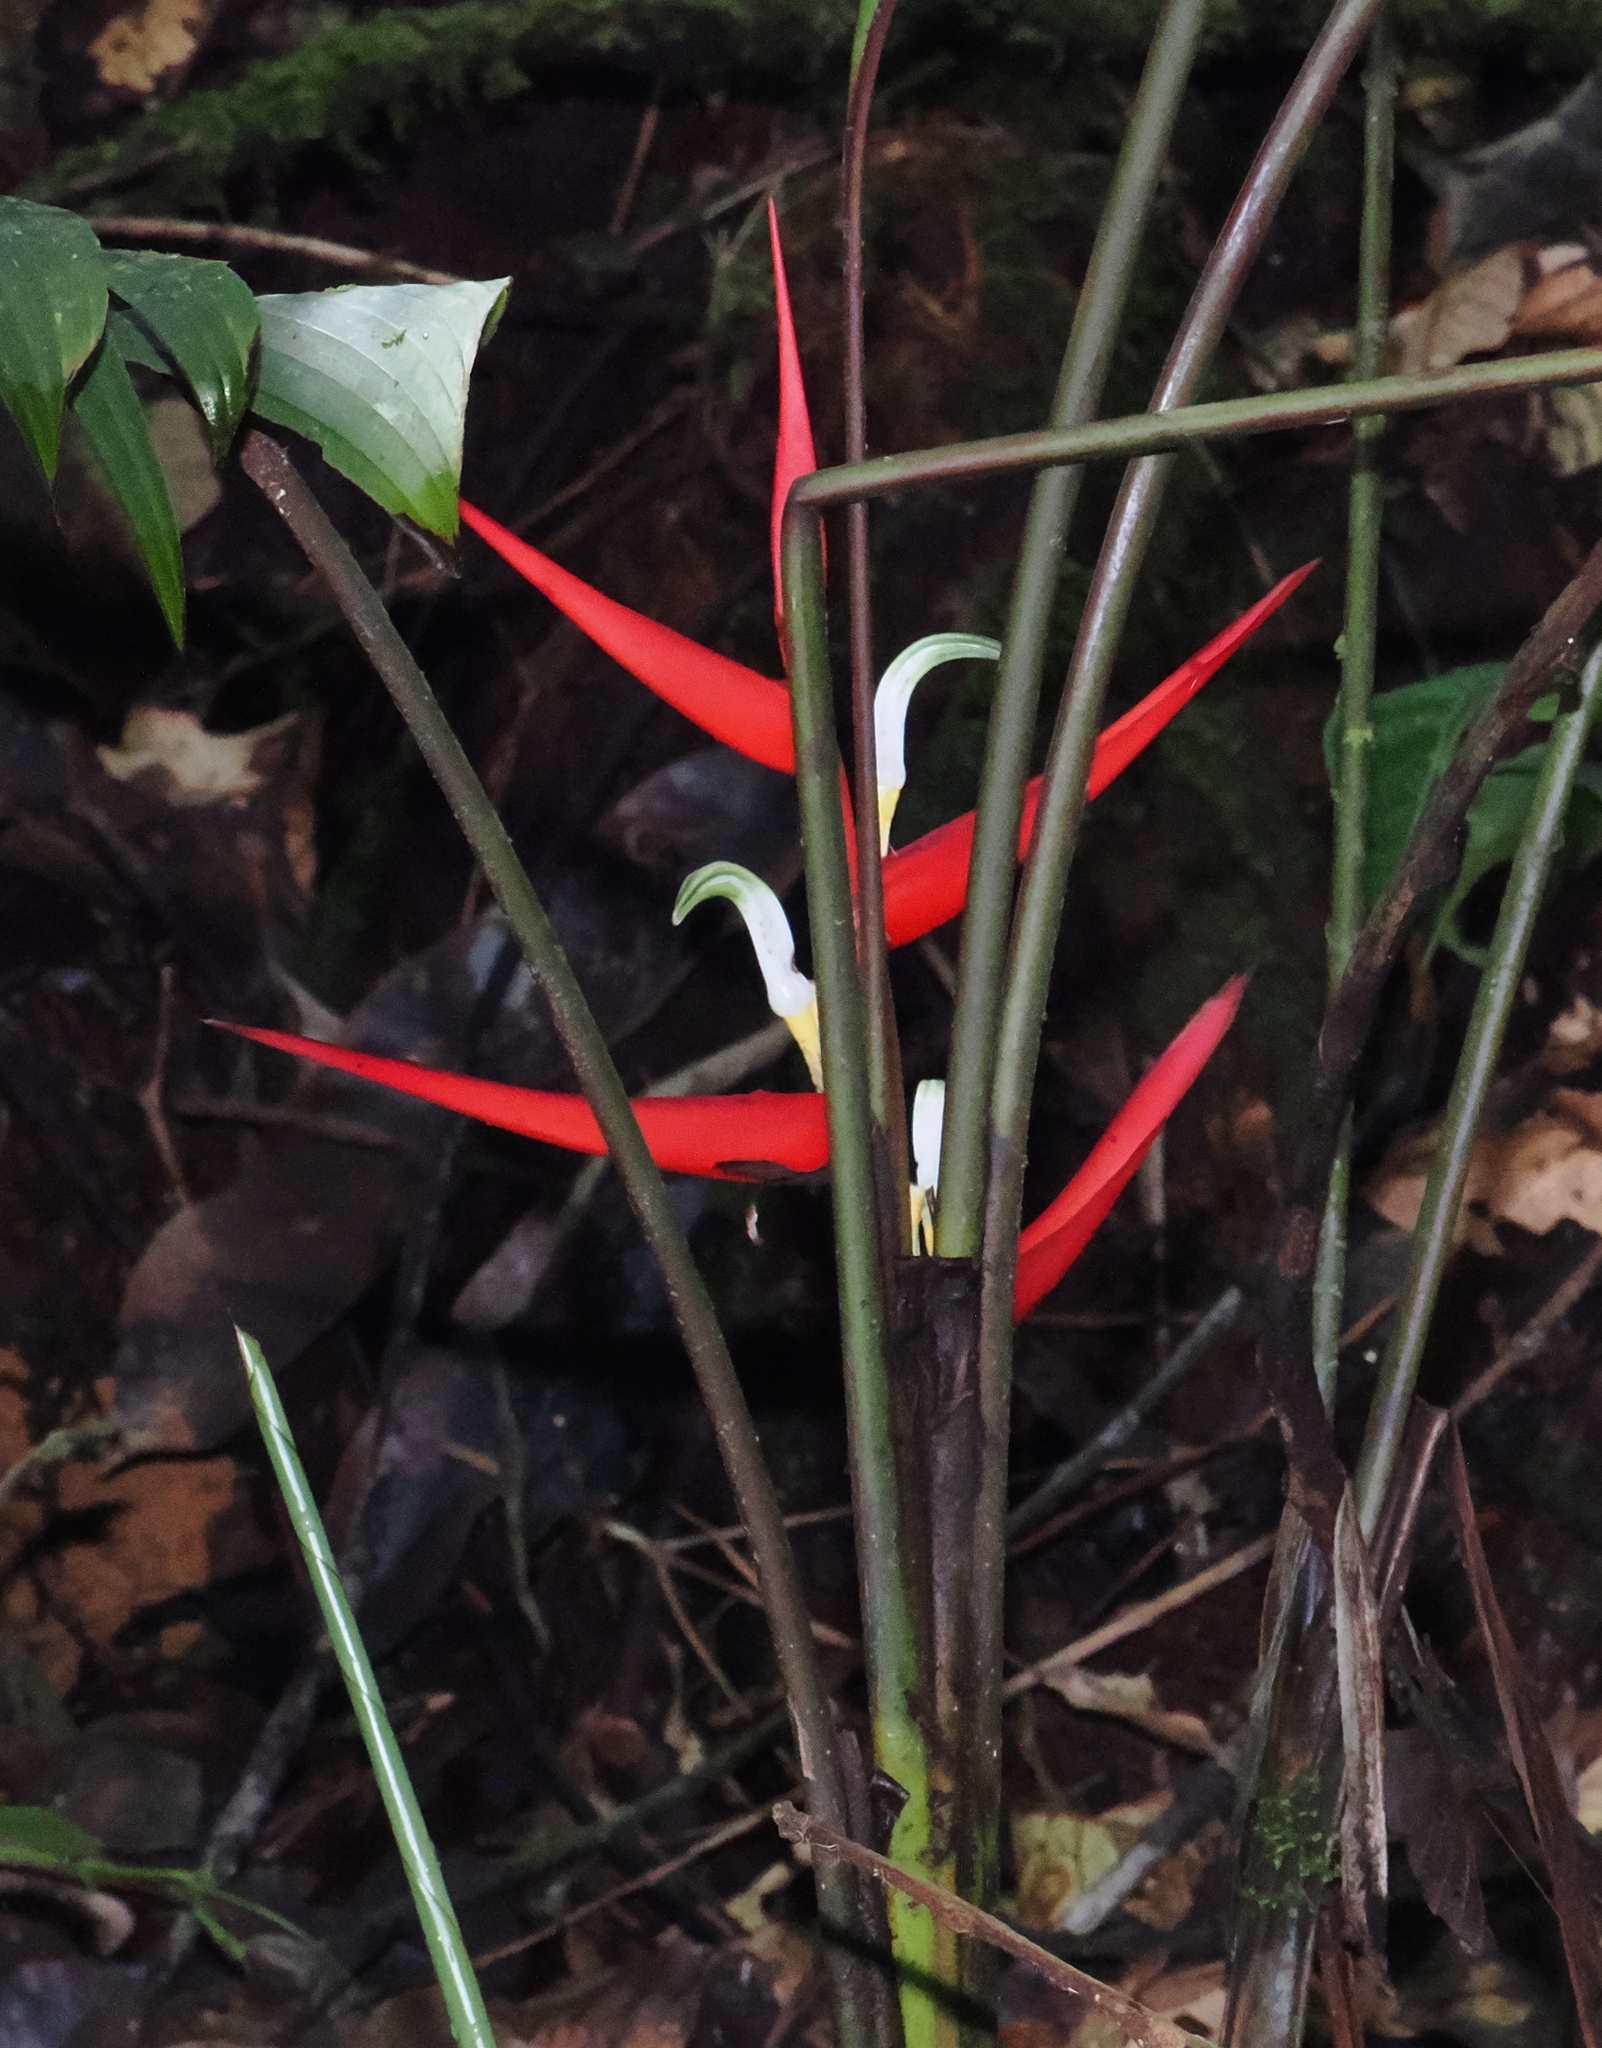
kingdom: Plantae
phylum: Tracheophyta
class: Liliopsida
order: Zingiberales
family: Heliconiaceae
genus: Heliconia
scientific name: Heliconia burleana
